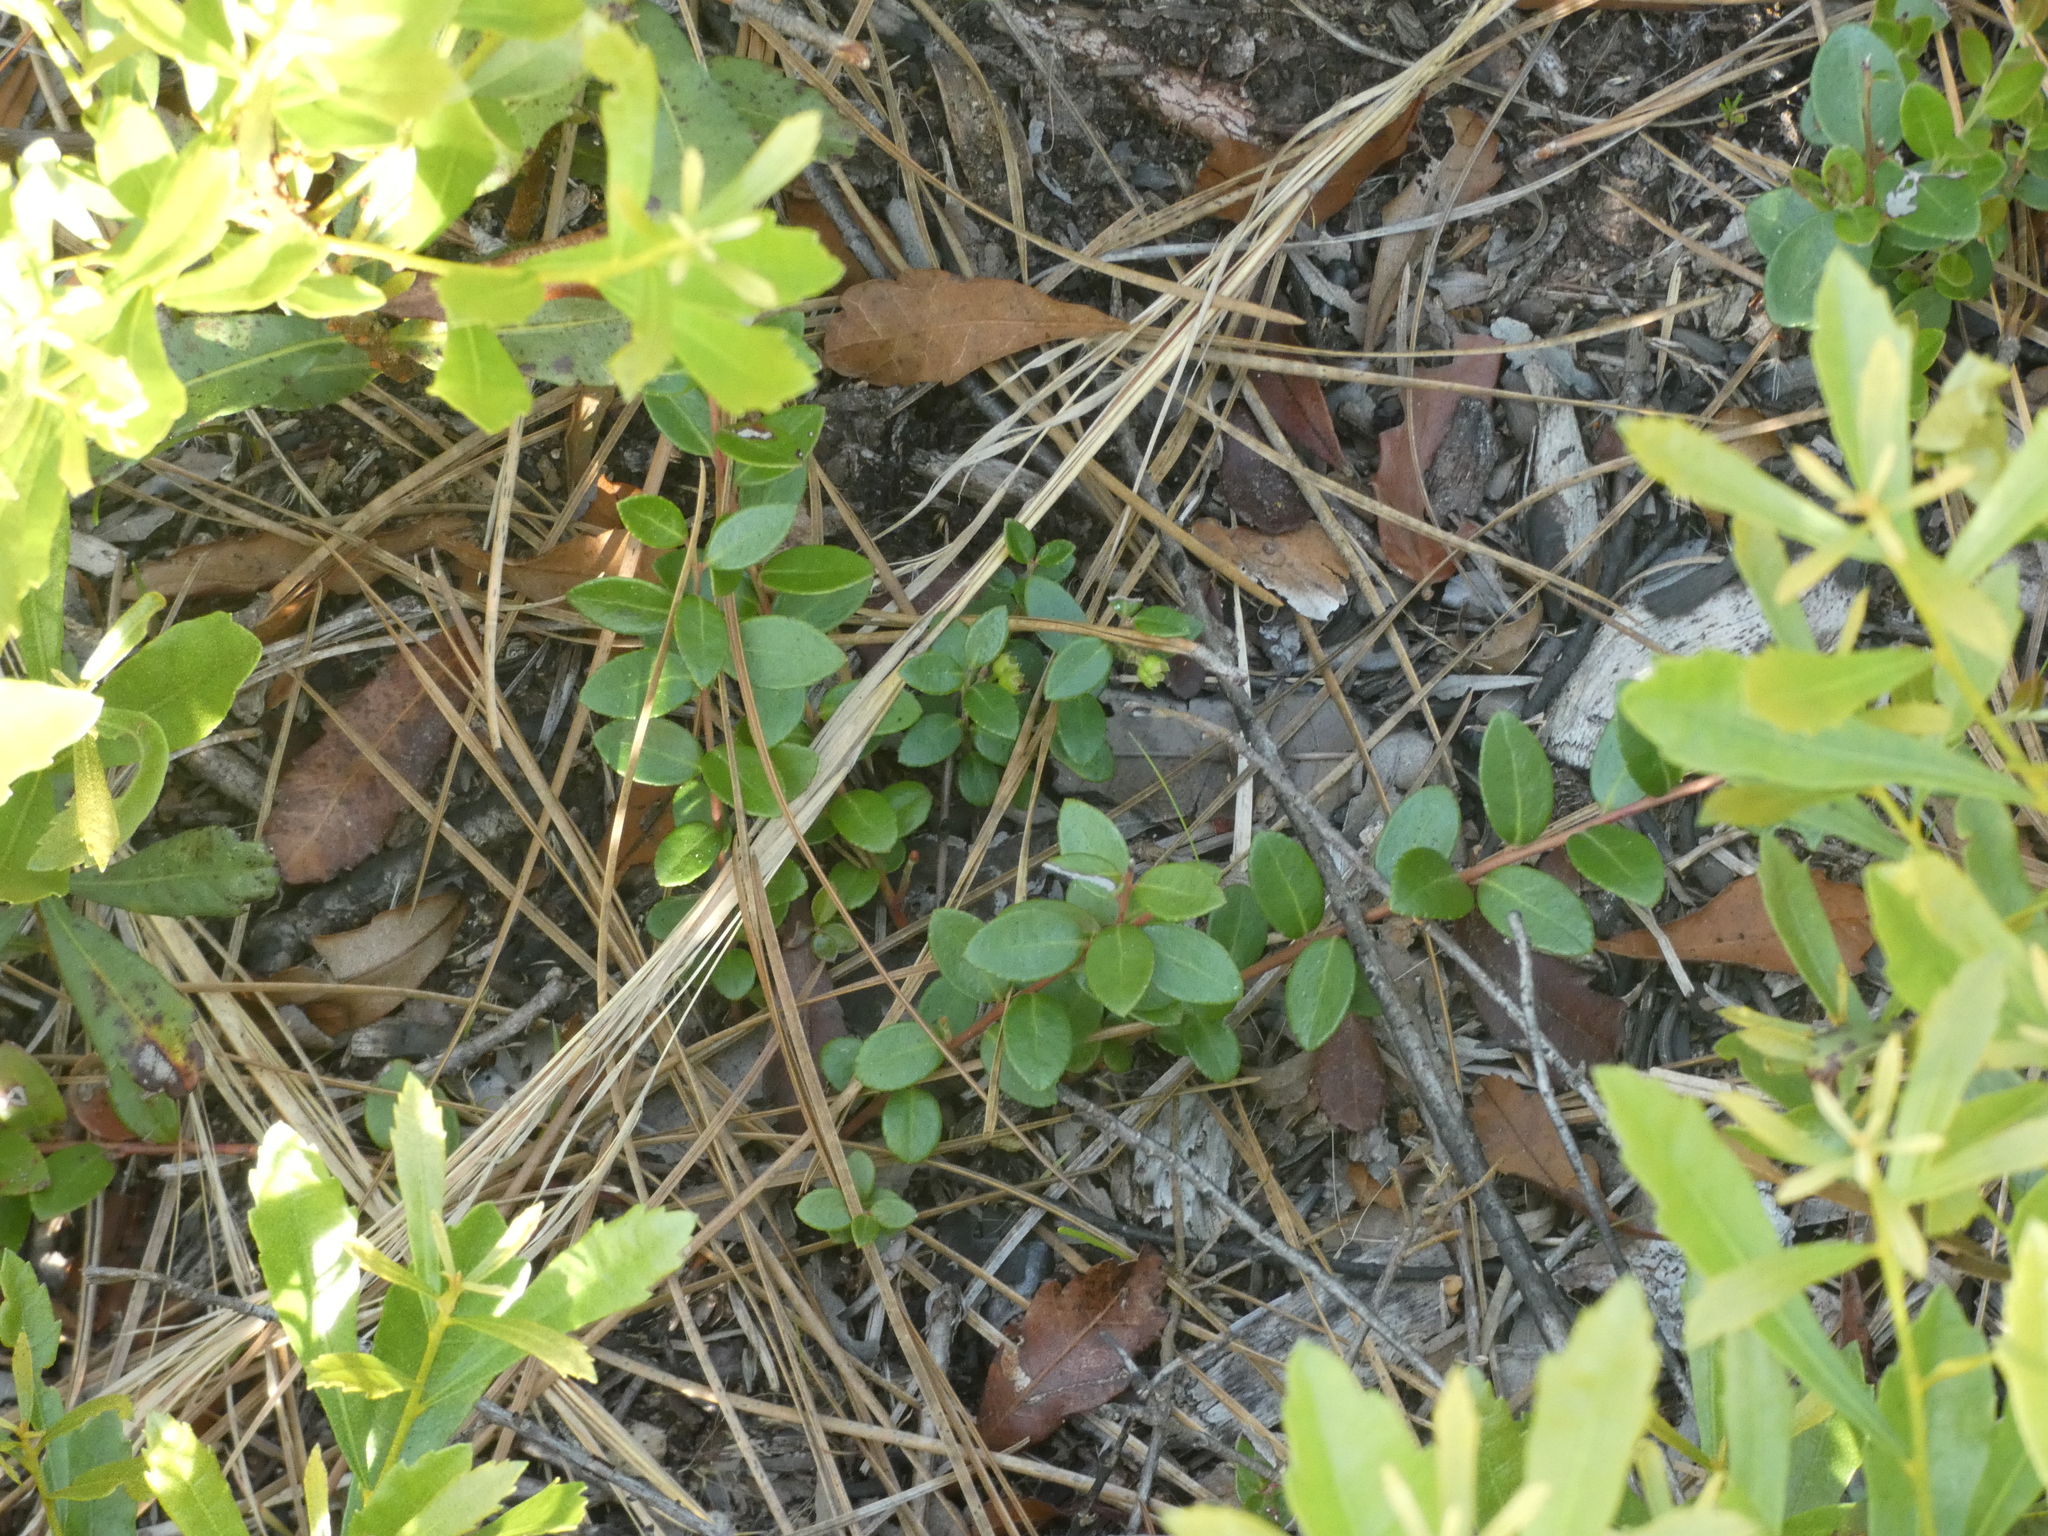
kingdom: Plantae
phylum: Tracheophyta
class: Magnoliopsida
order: Ericales
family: Ericaceae
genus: Vaccinium
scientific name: Vaccinium crassifolium
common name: Creeping blueberry
